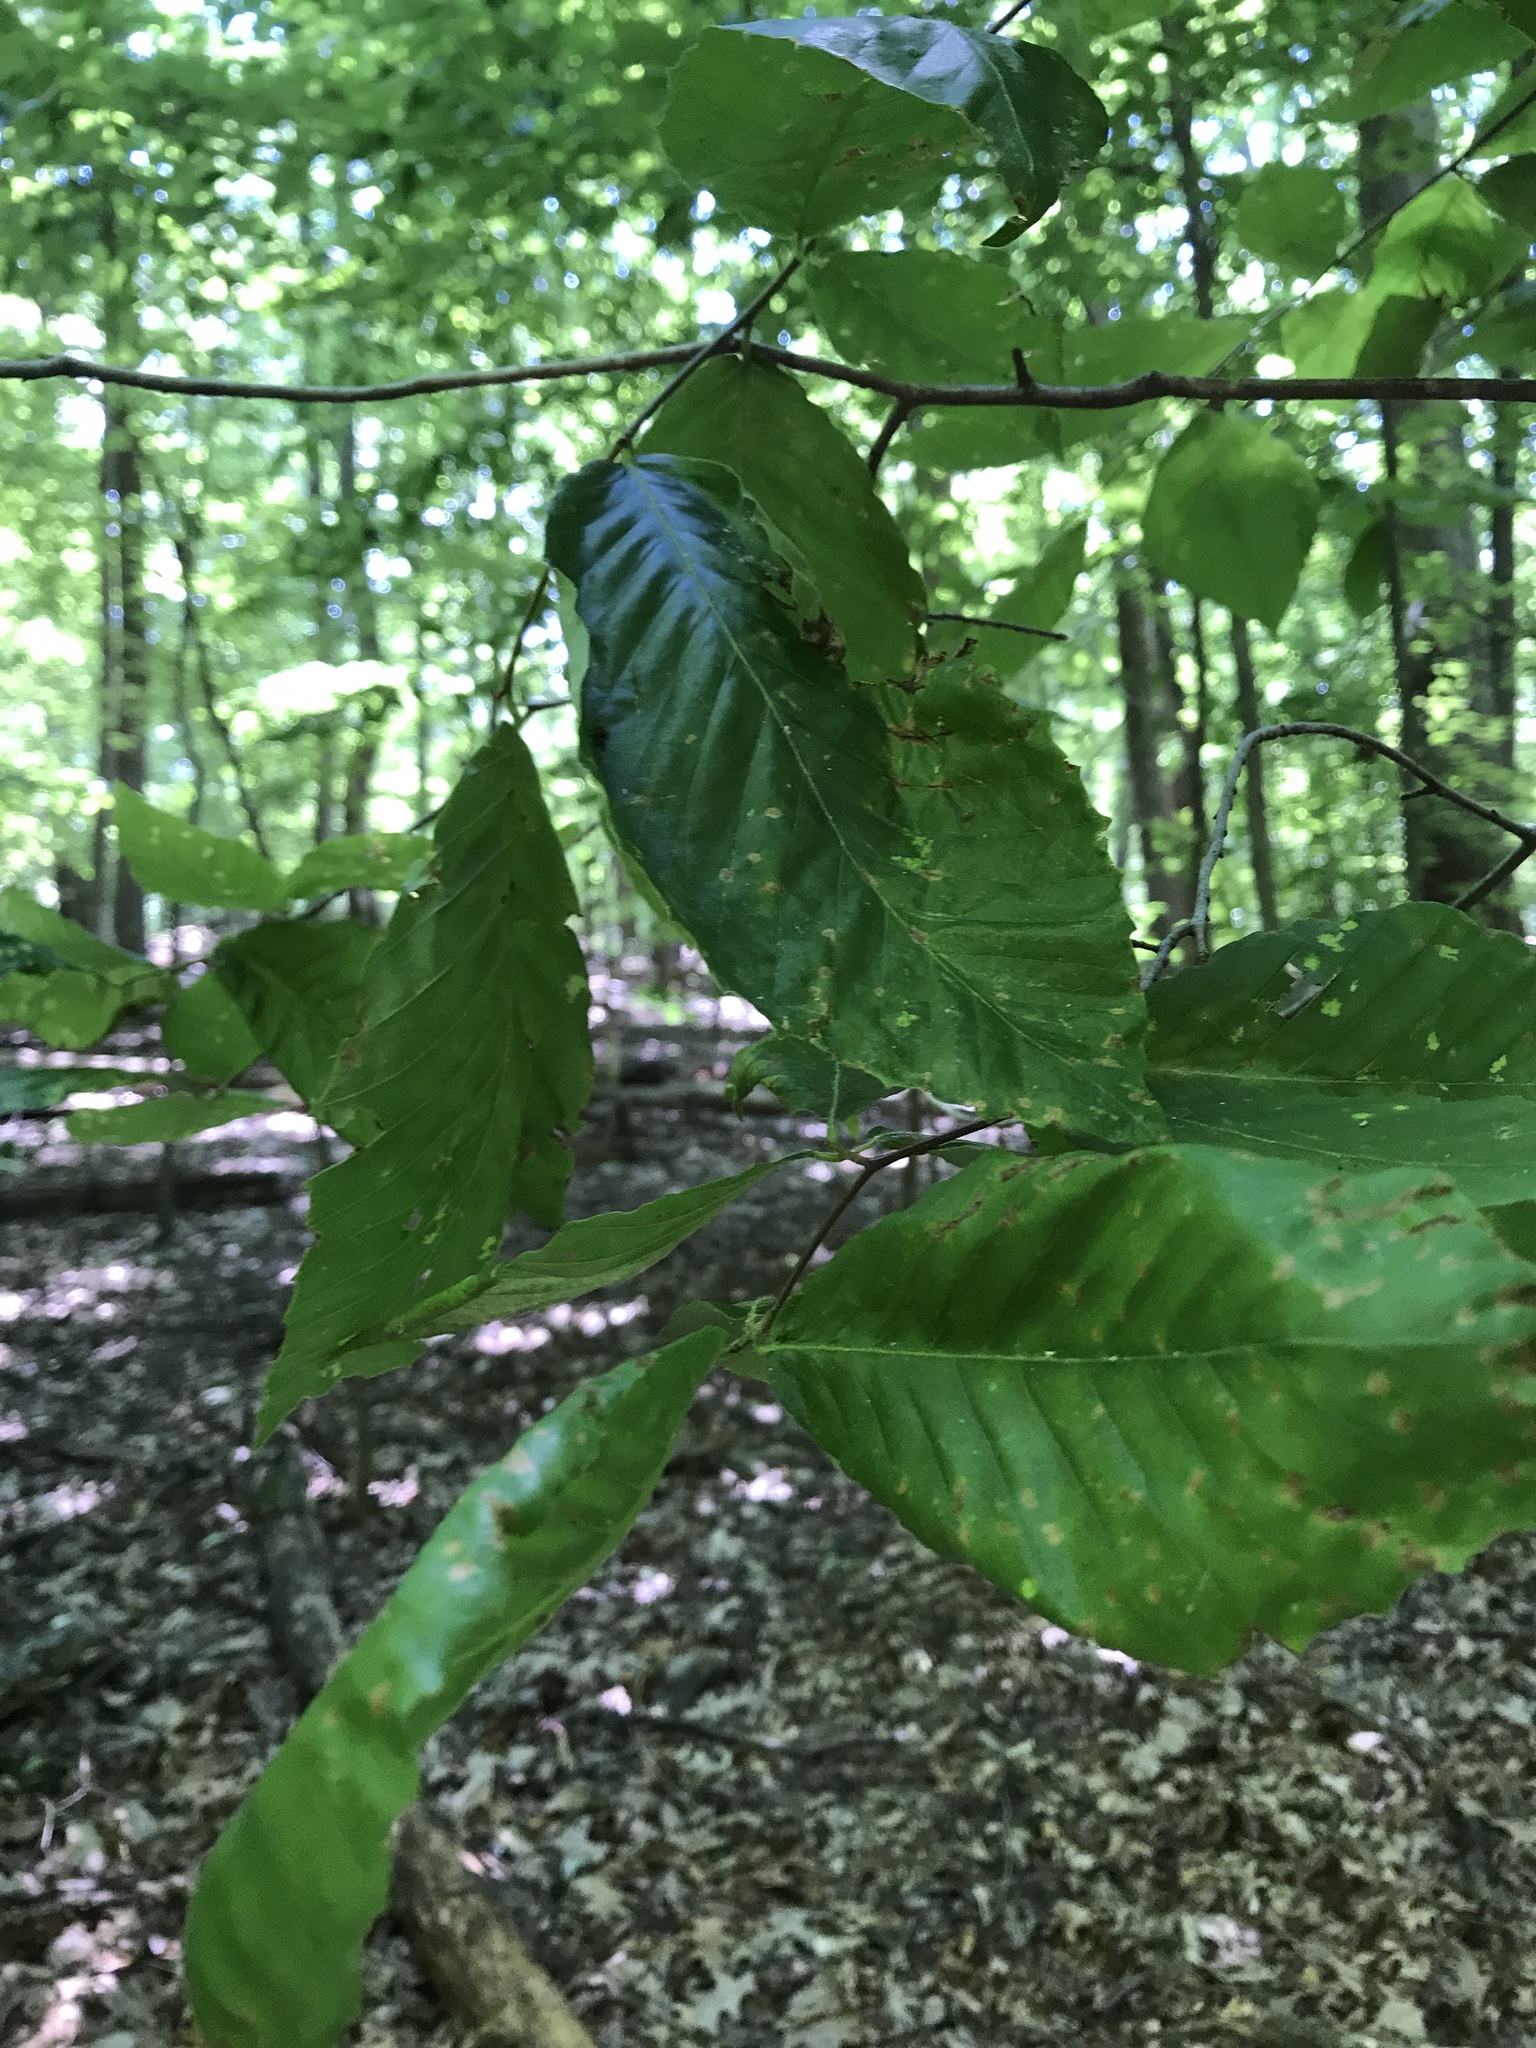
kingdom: Plantae
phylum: Tracheophyta
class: Magnoliopsida
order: Fagales
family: Fagaceae
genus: Fagus
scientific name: Fagus grandifolia
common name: American beech
